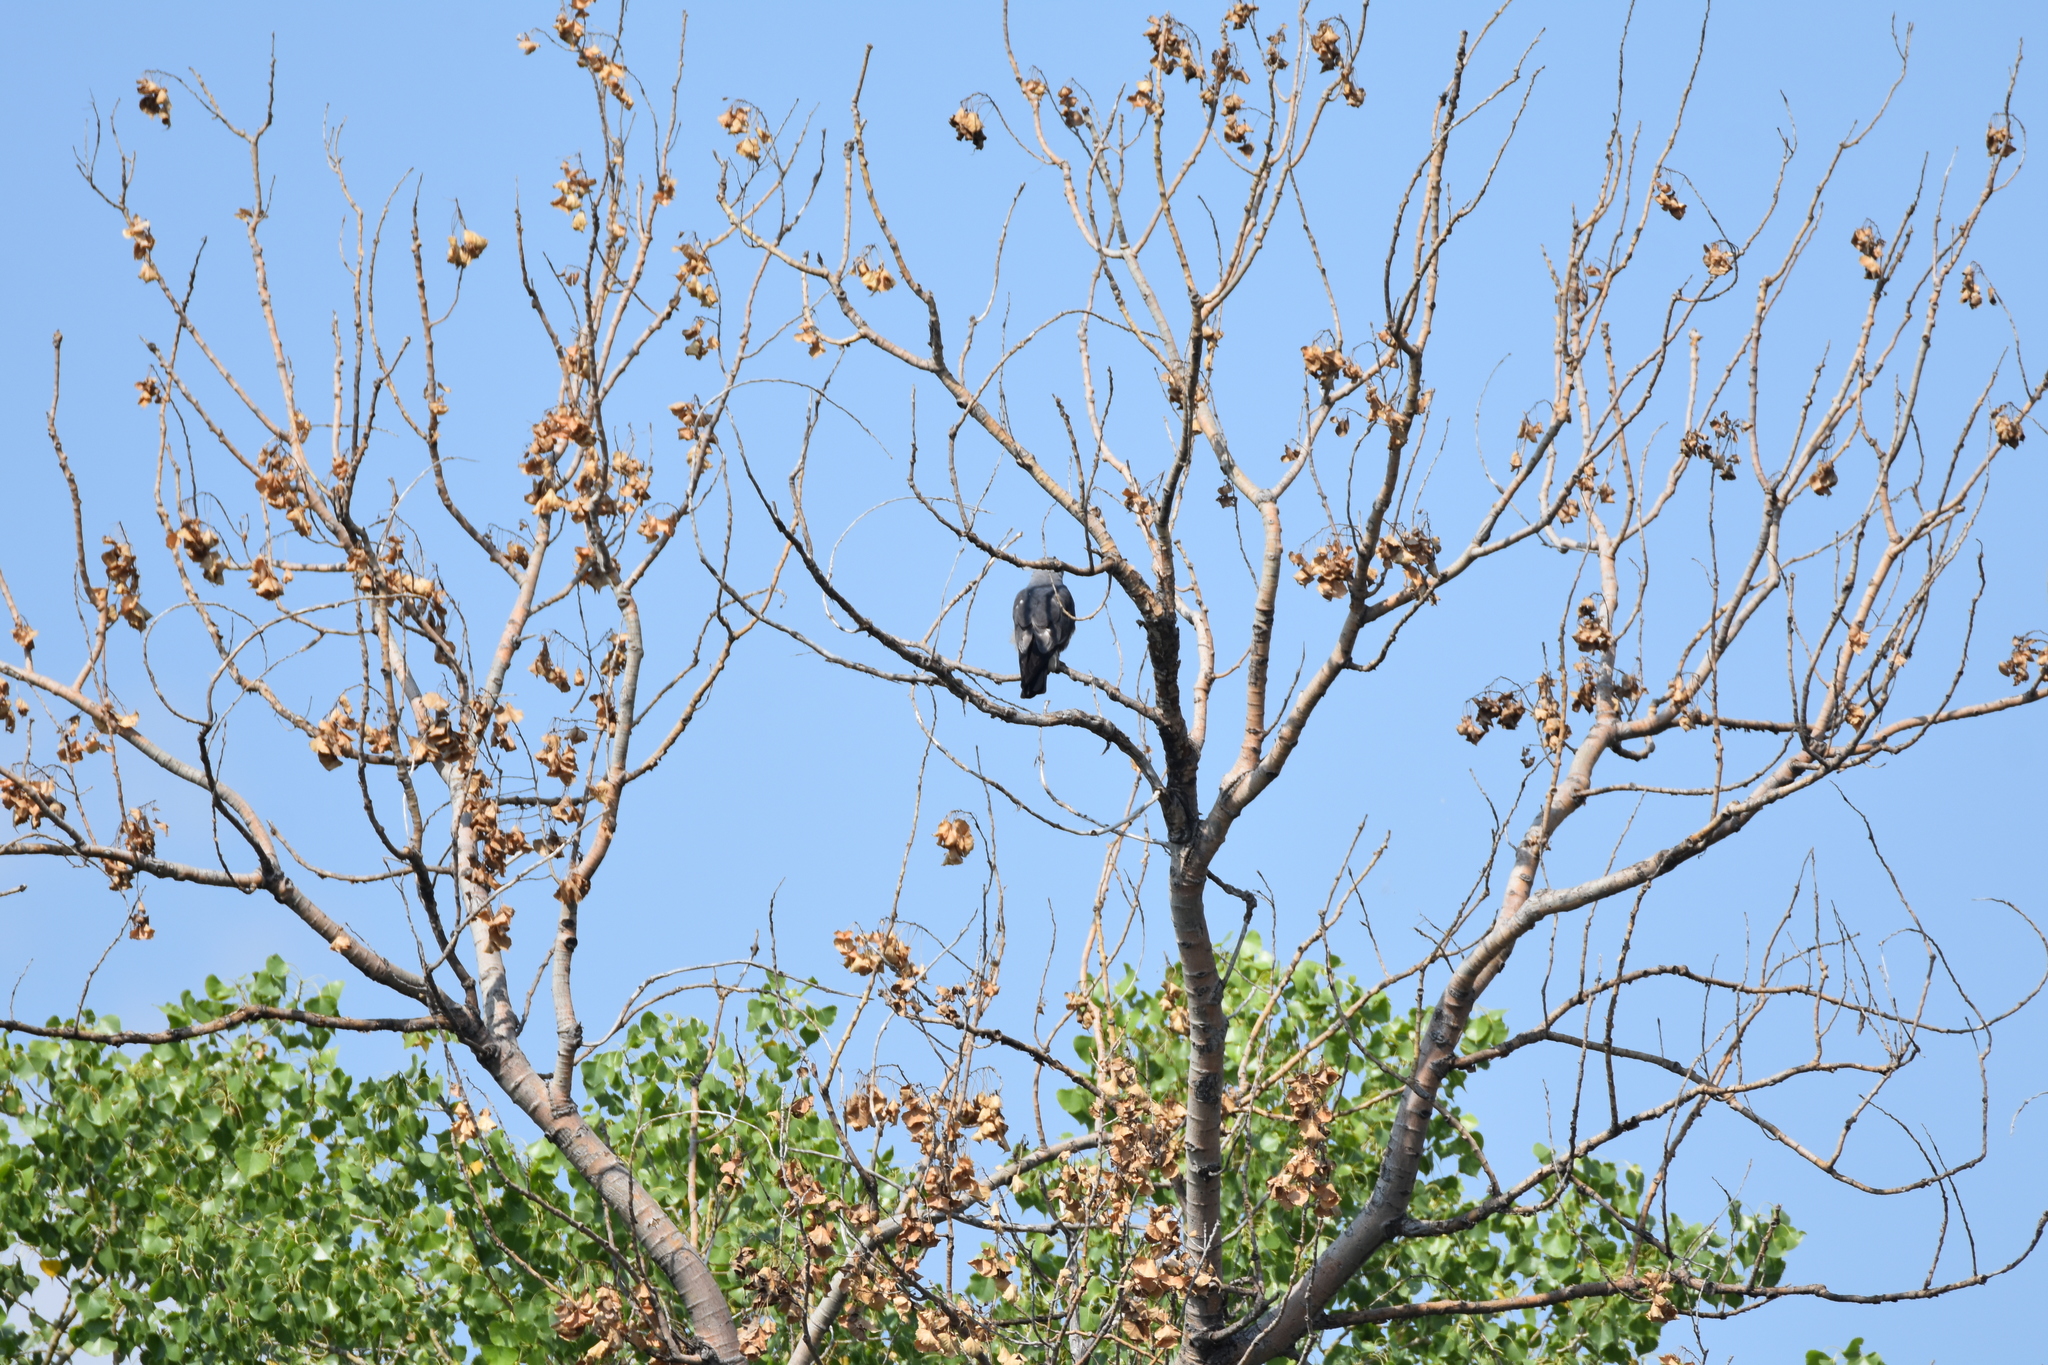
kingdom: Animalia
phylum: Chordata
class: Aves
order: Accipitriformes
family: Accipitridae
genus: Ictinia
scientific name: Ictinia mississippiensis
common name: Mississippi kite
